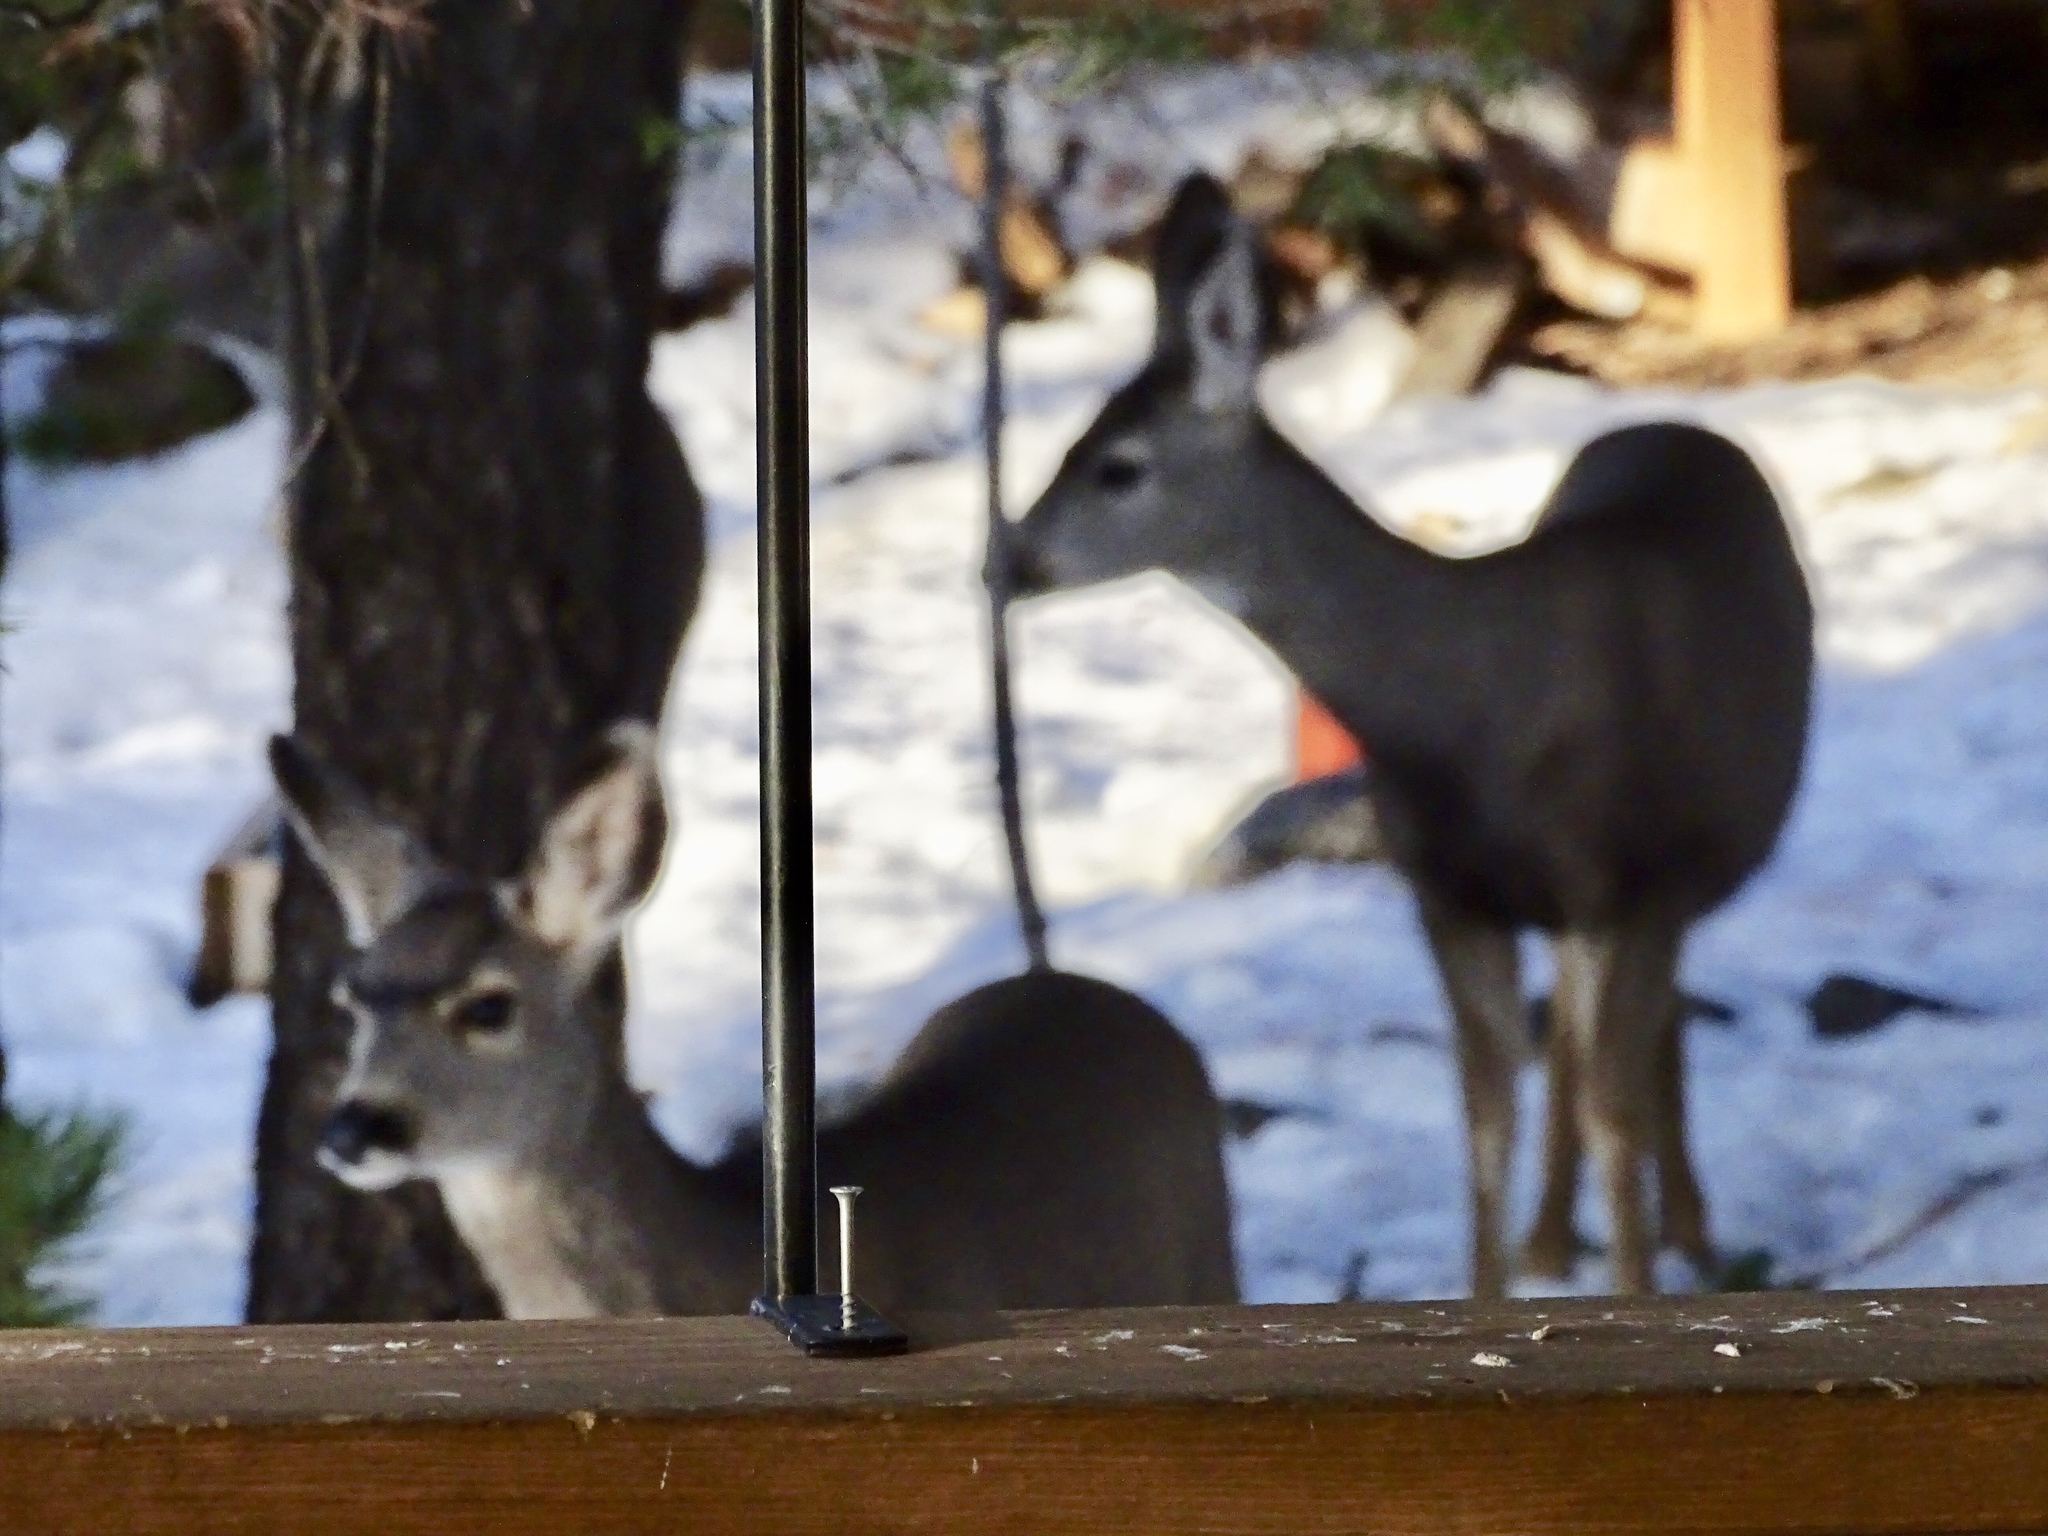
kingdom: Animalia
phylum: Chordata
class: Mammalia
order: Artiodactyla
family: Cervidae
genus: Odocoileus
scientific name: Odocoileus hemionus
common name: Mule deer
